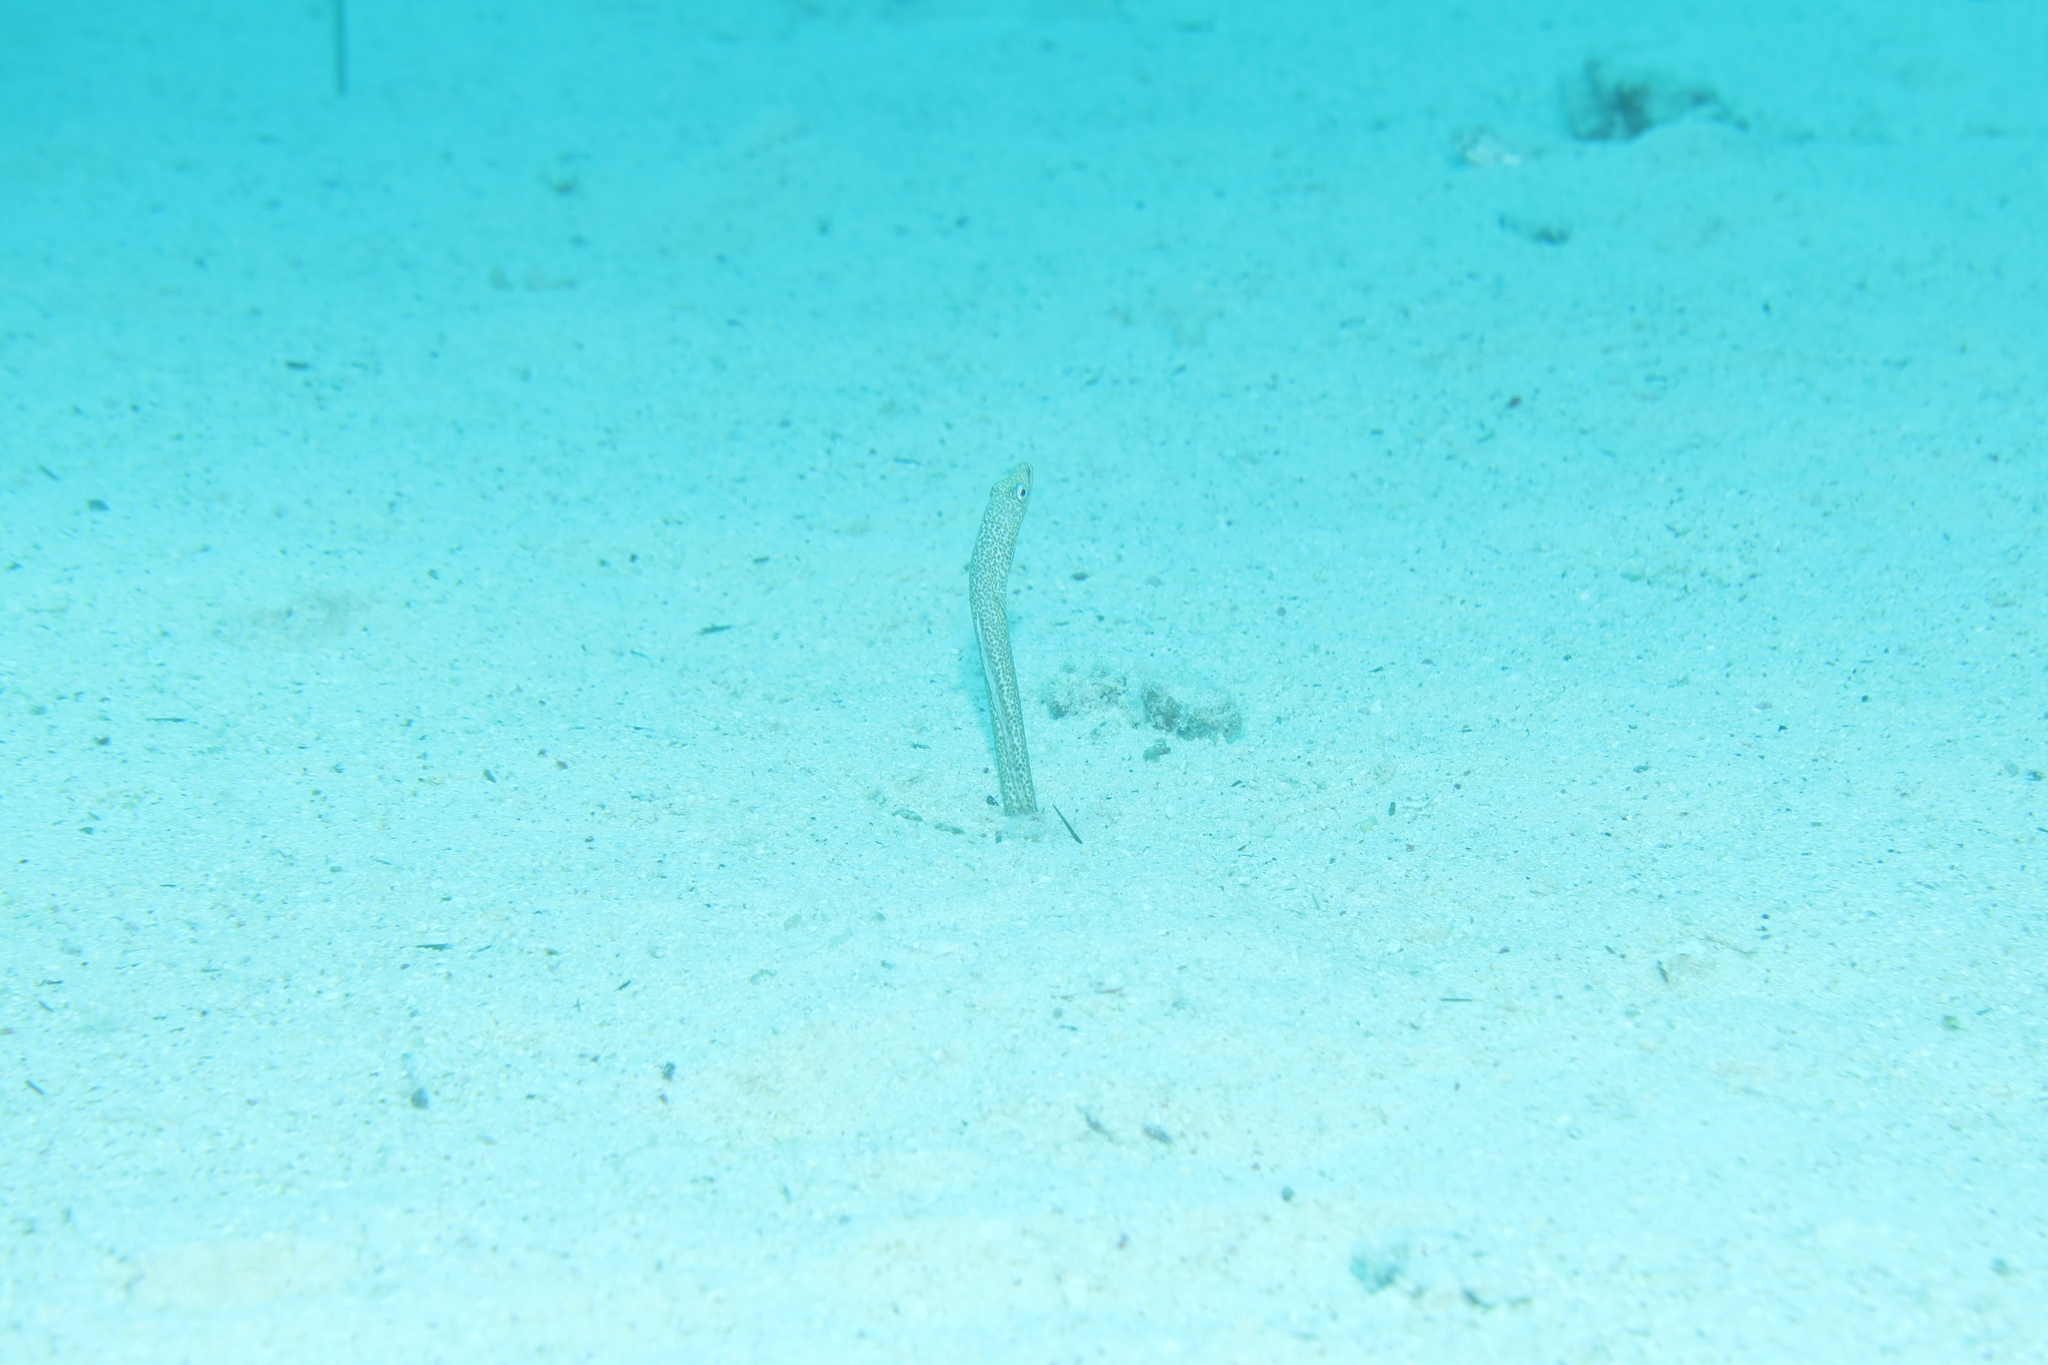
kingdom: Animalia
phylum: Chordata
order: Anguilliformes
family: Congridae
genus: Gorgasia
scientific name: Gorgasia sillneri
